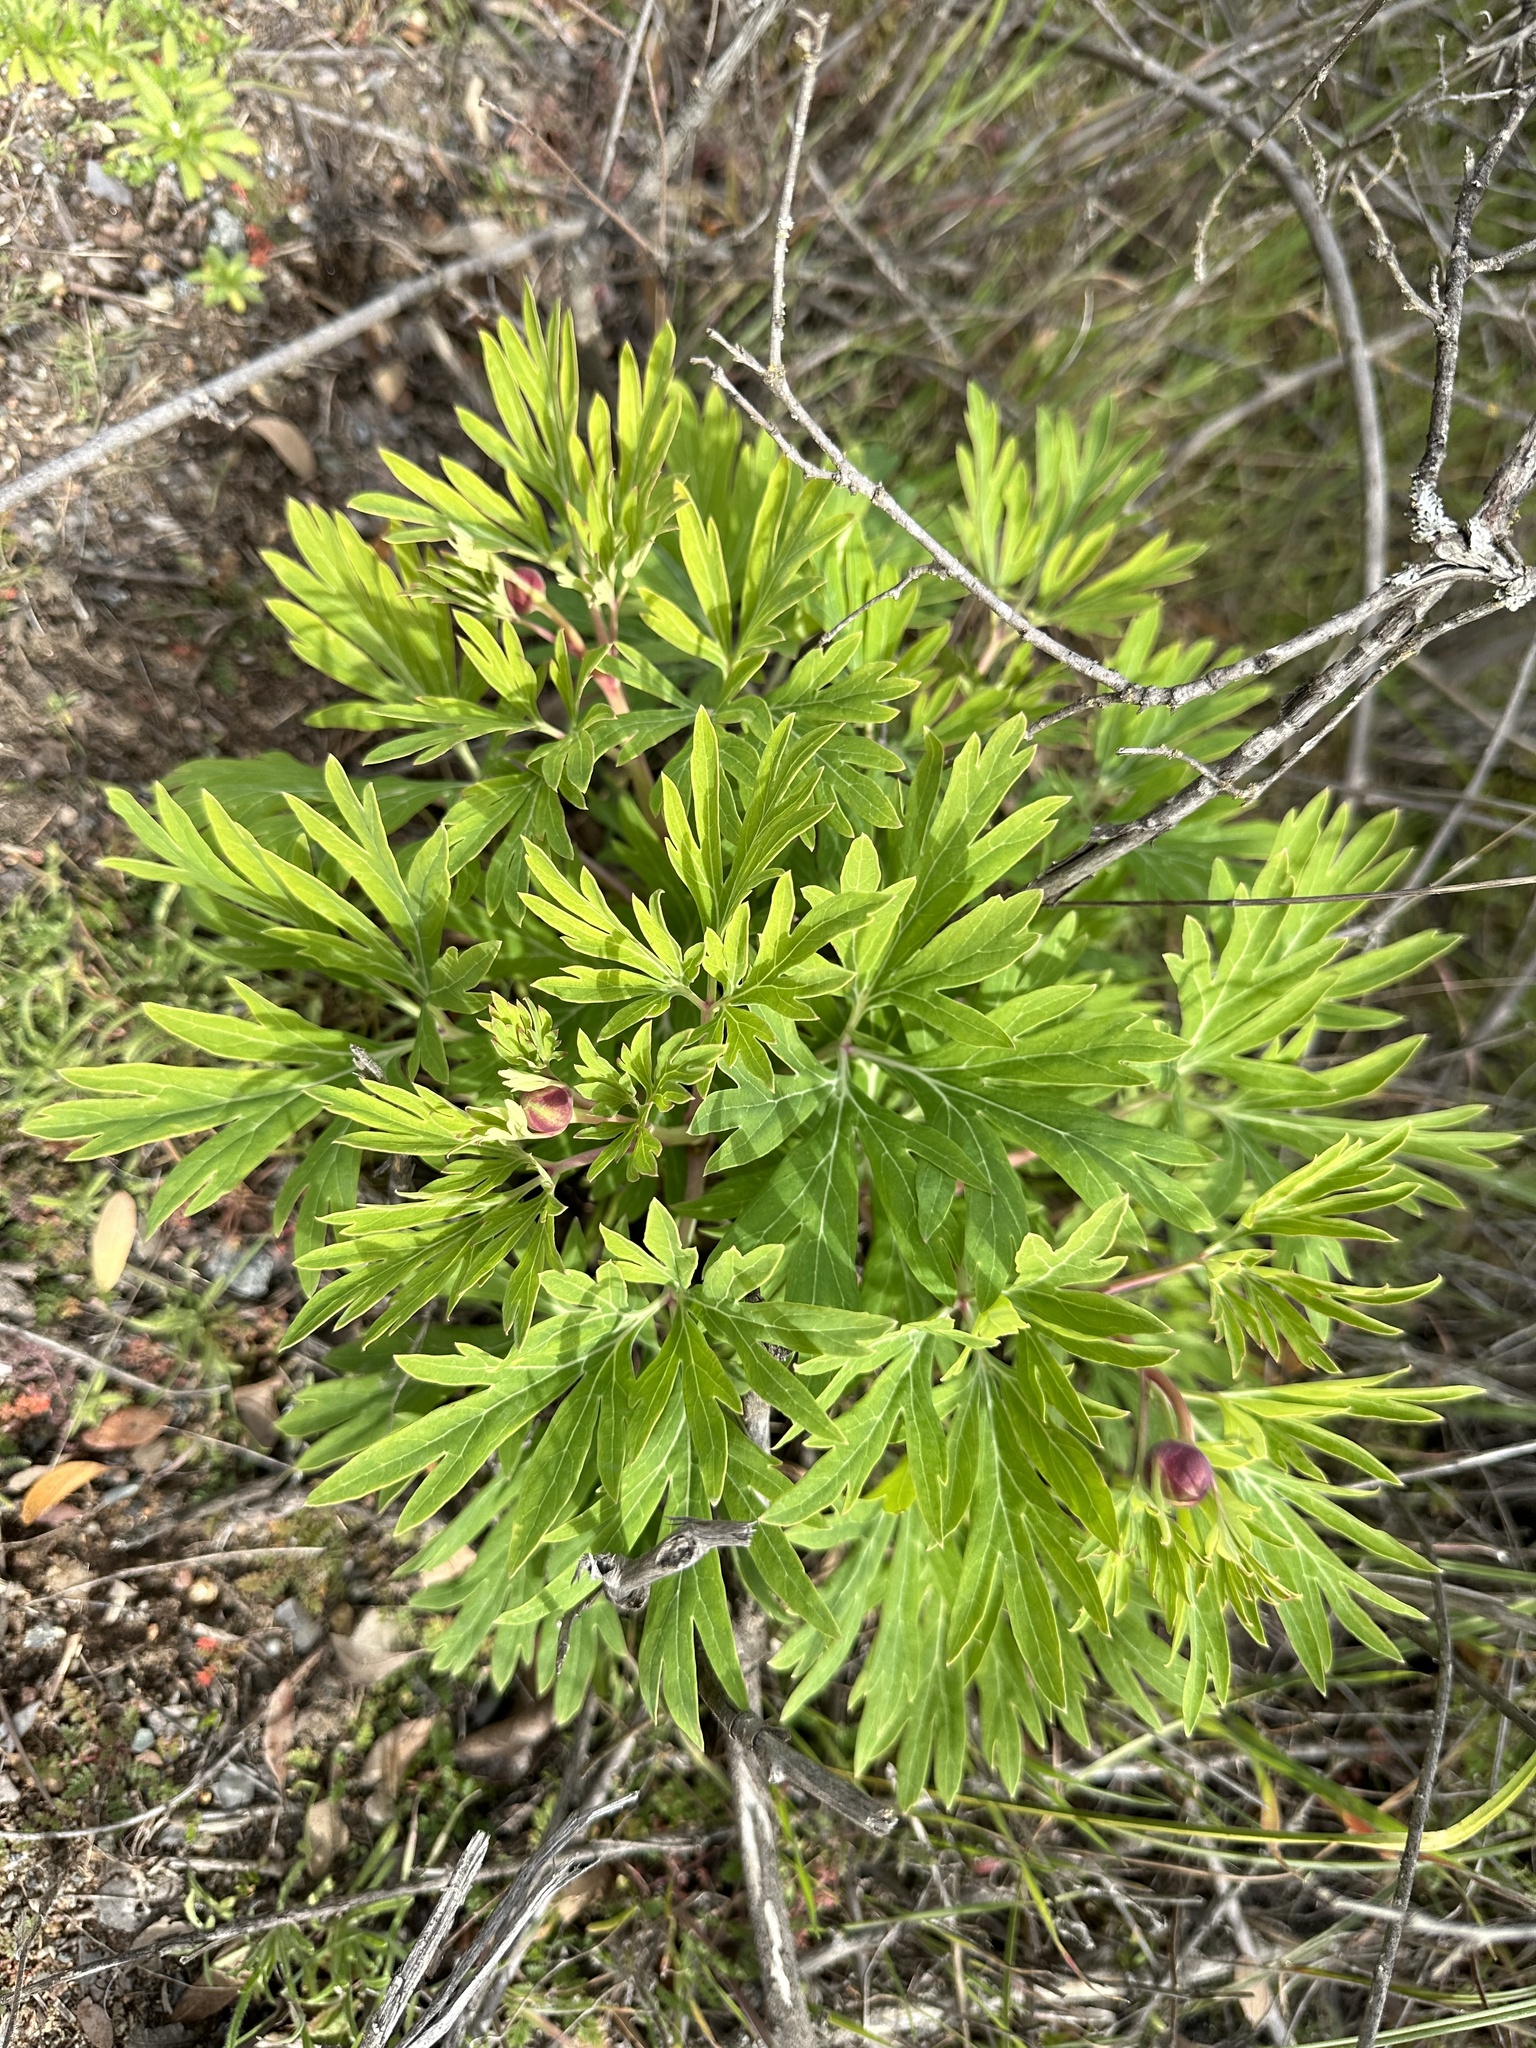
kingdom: Plantae
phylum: Tracheophyta
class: Magnoliopsida
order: Saxifragales
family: Paeoniaceae
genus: Paeonia
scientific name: Paeonia californica
